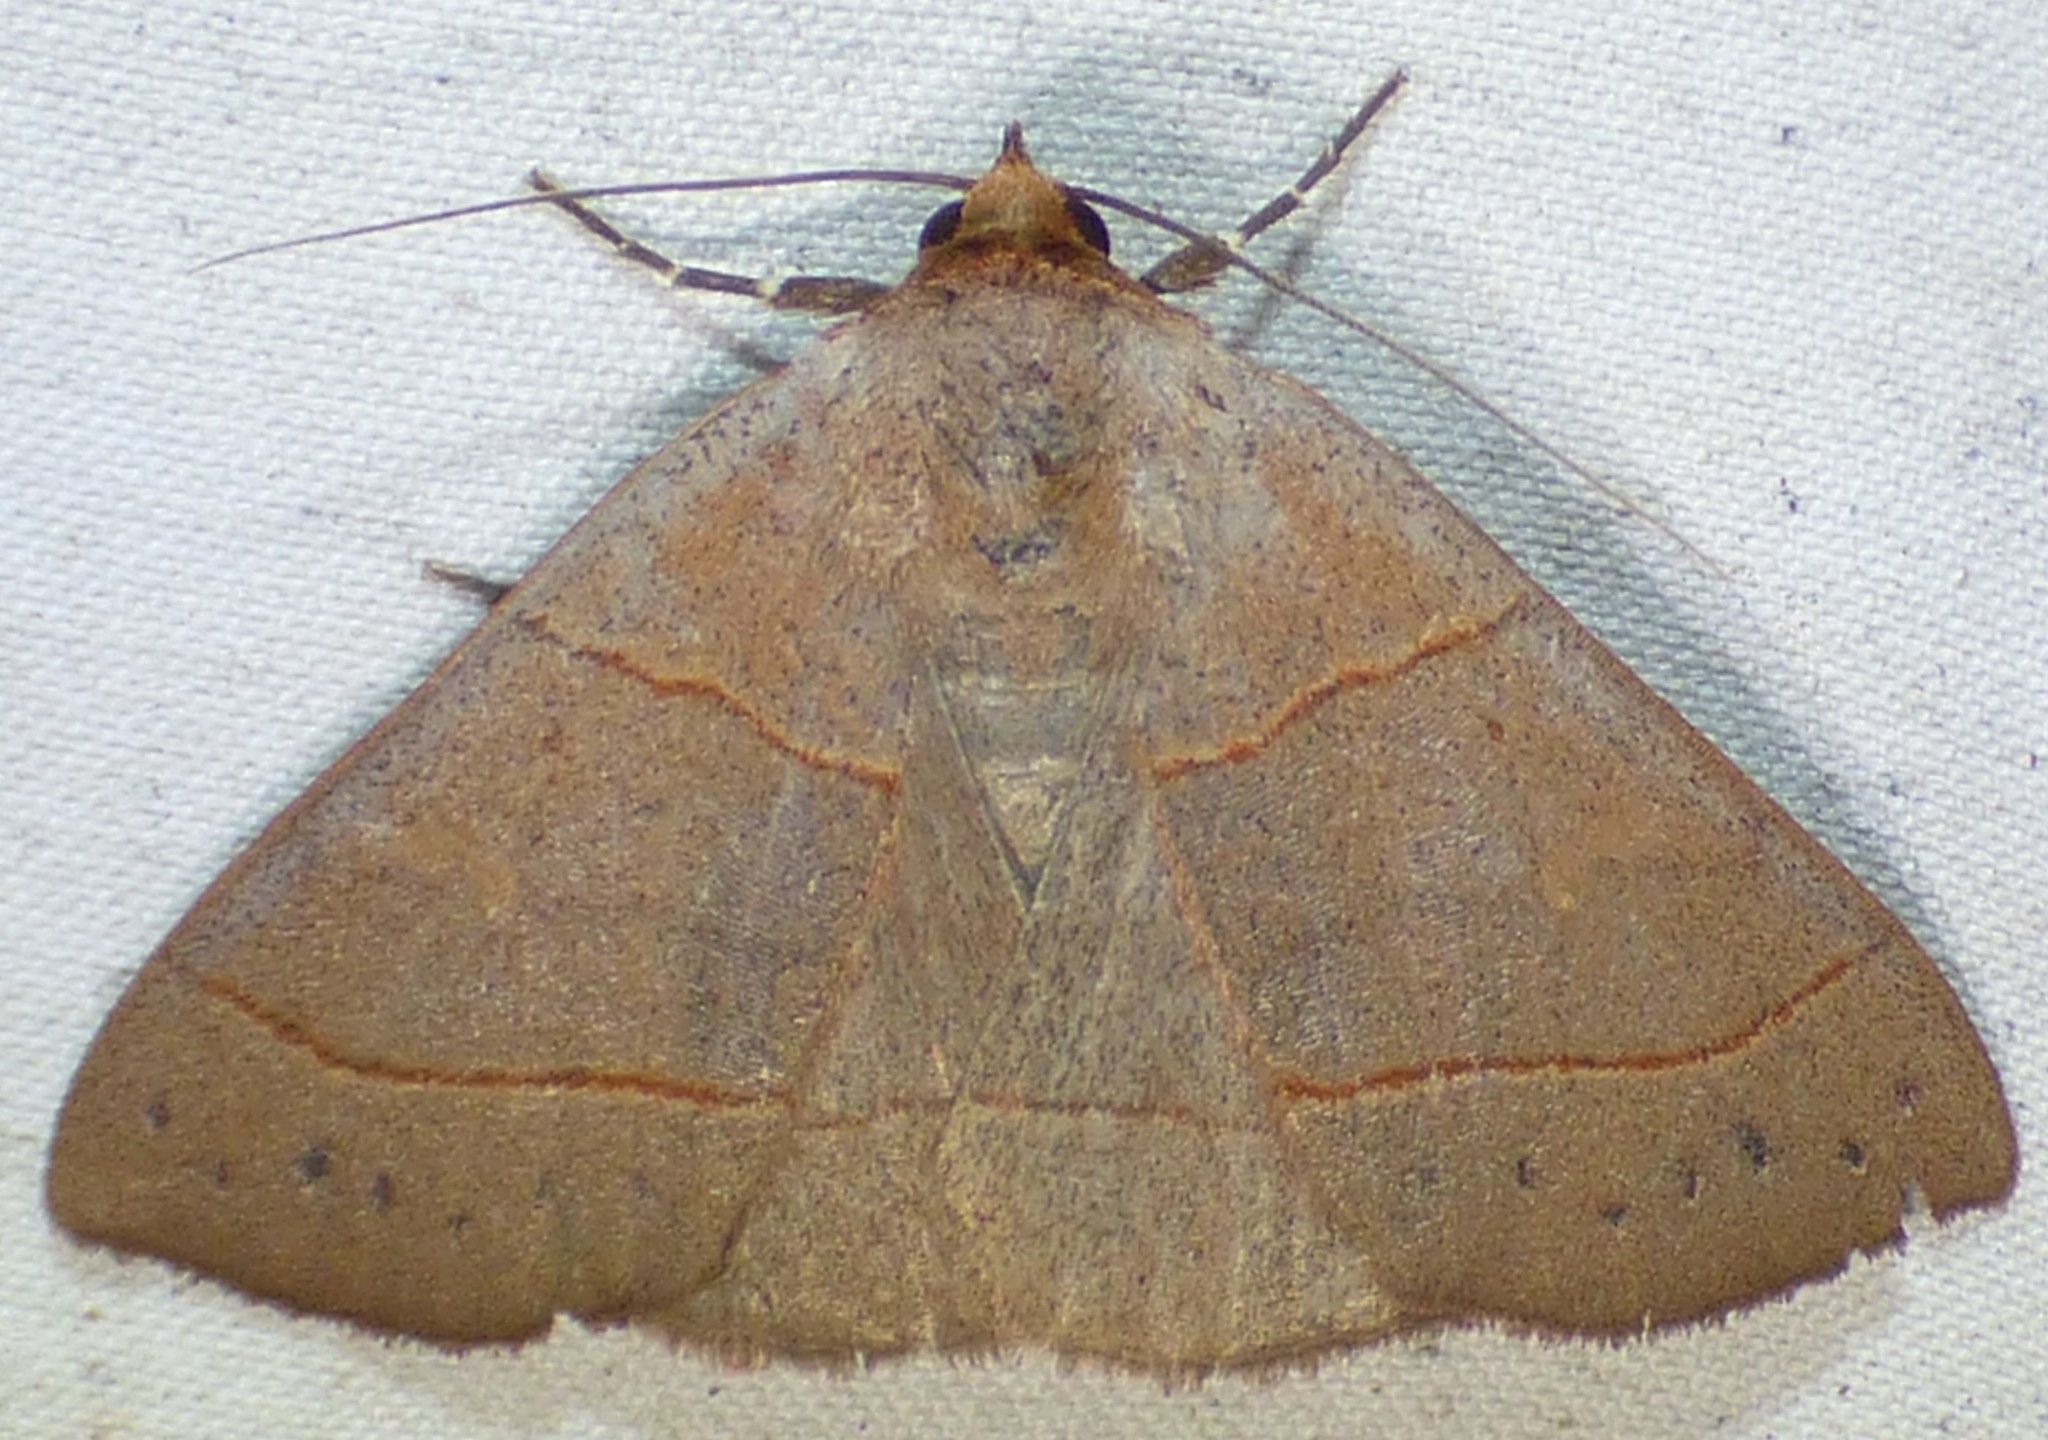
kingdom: Animalia
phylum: Arthropoda
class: Insecta
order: Lepidoptera
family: Erebidae
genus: Panopoda
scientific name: Panopoda rufimargo
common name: Red-lined panopoda moth
